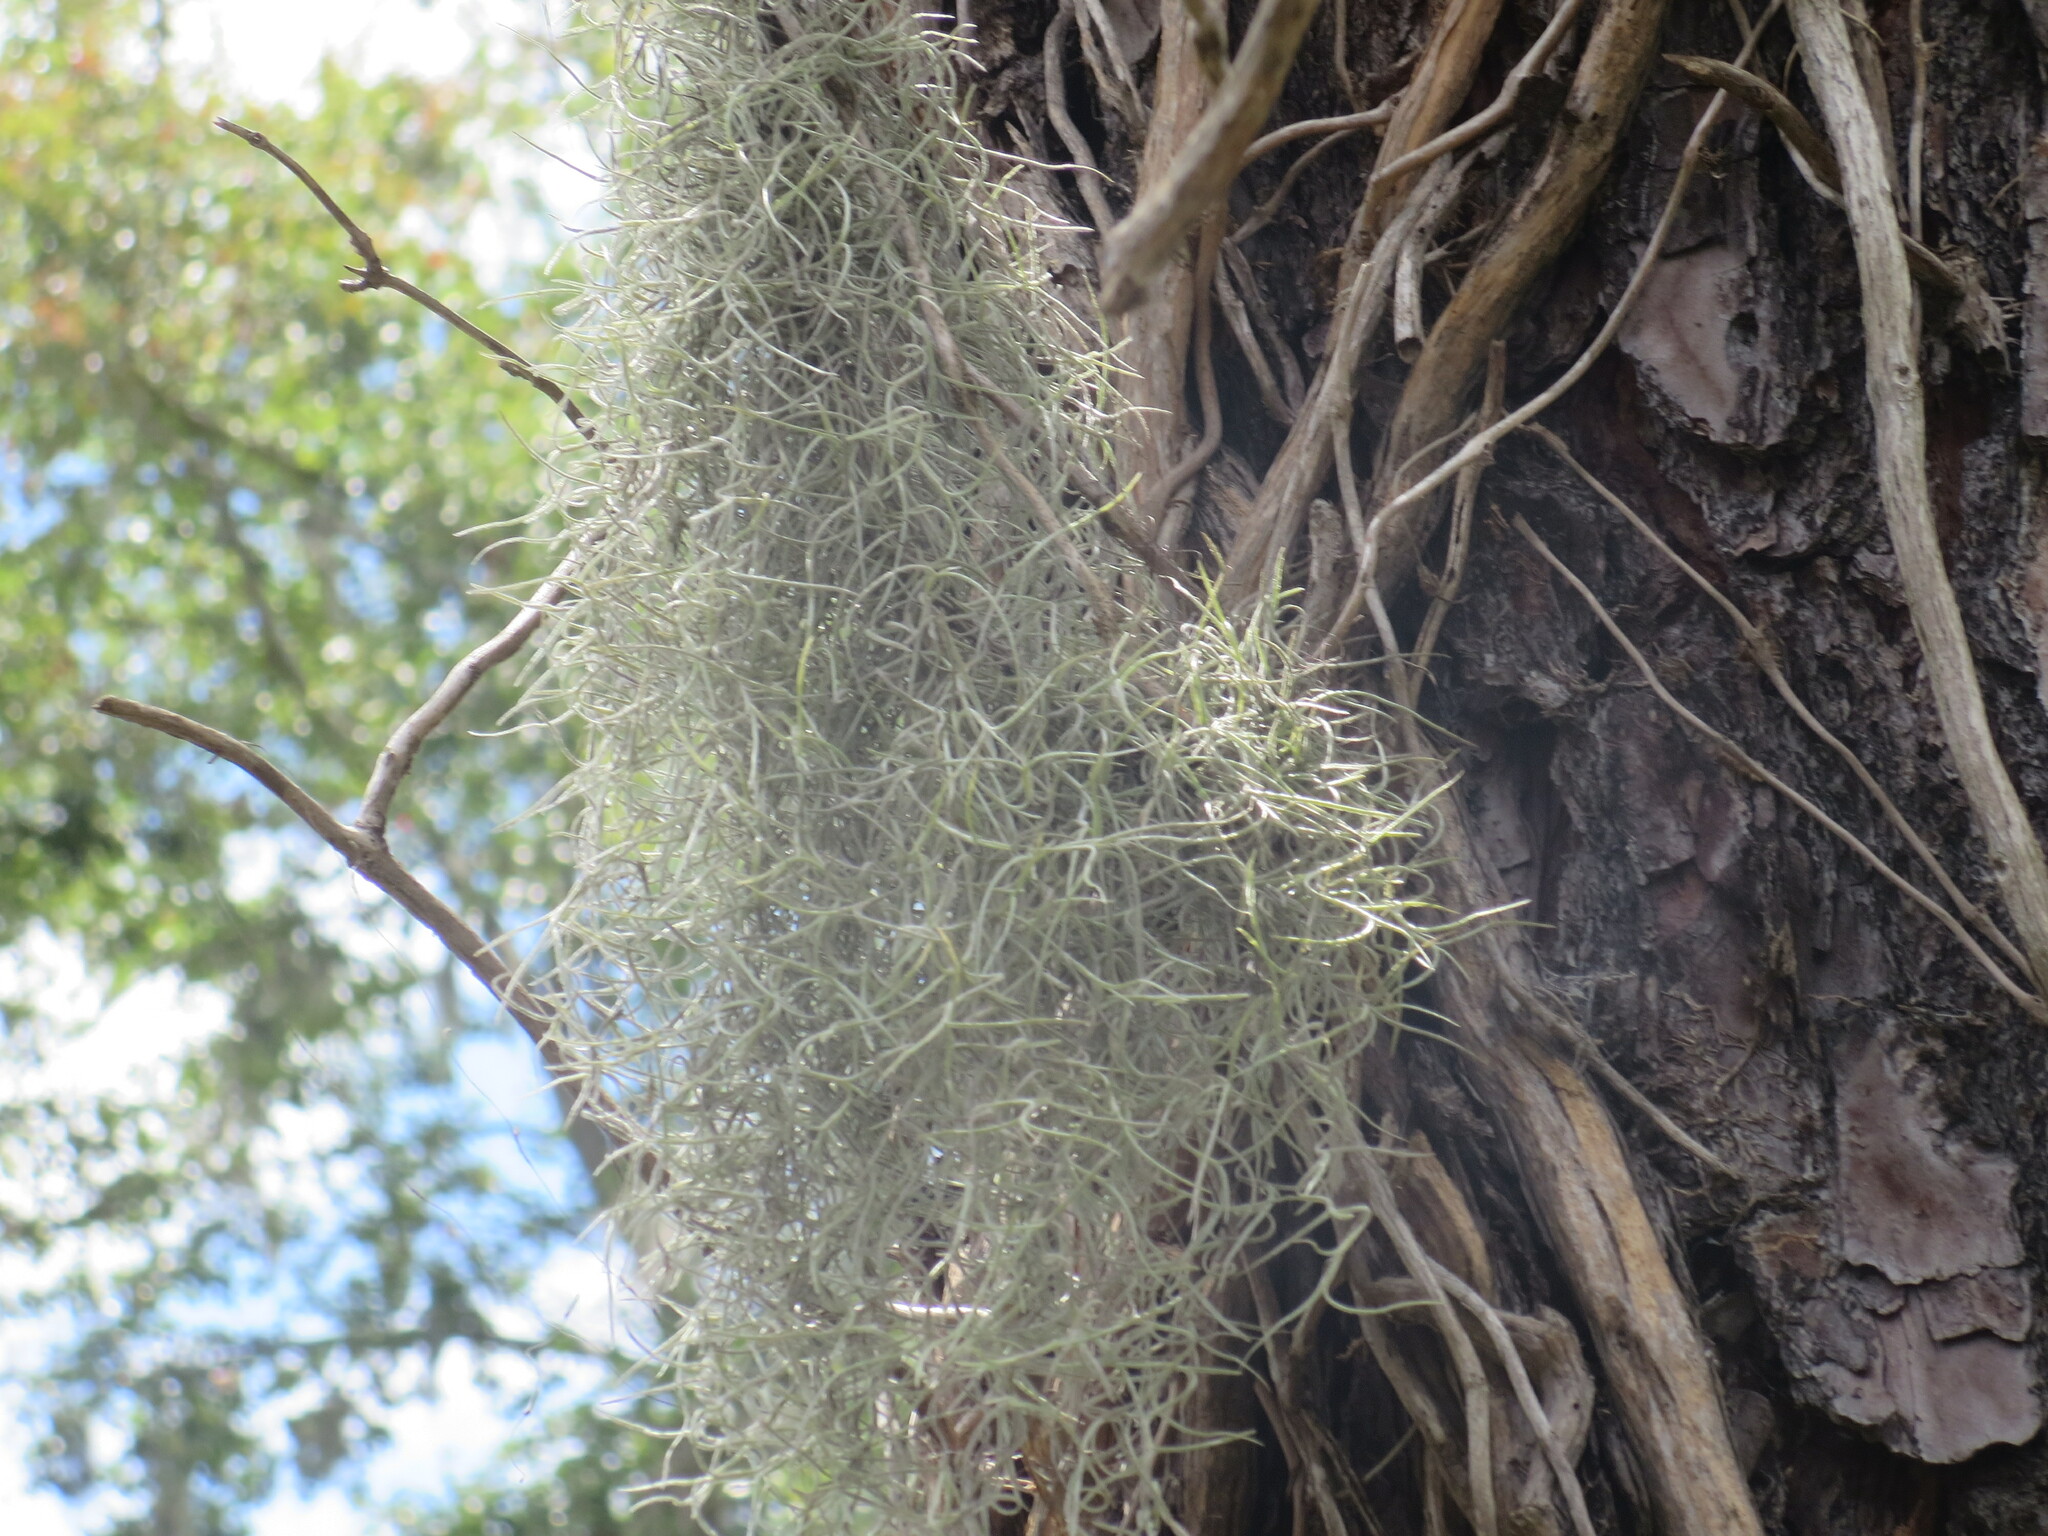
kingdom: Plantae
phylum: Tracheophyta
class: Liliopsida
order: Poales
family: Bromeliaceae
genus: Tillandsia
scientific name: Tillandsia usneoides
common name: Spanish moss
